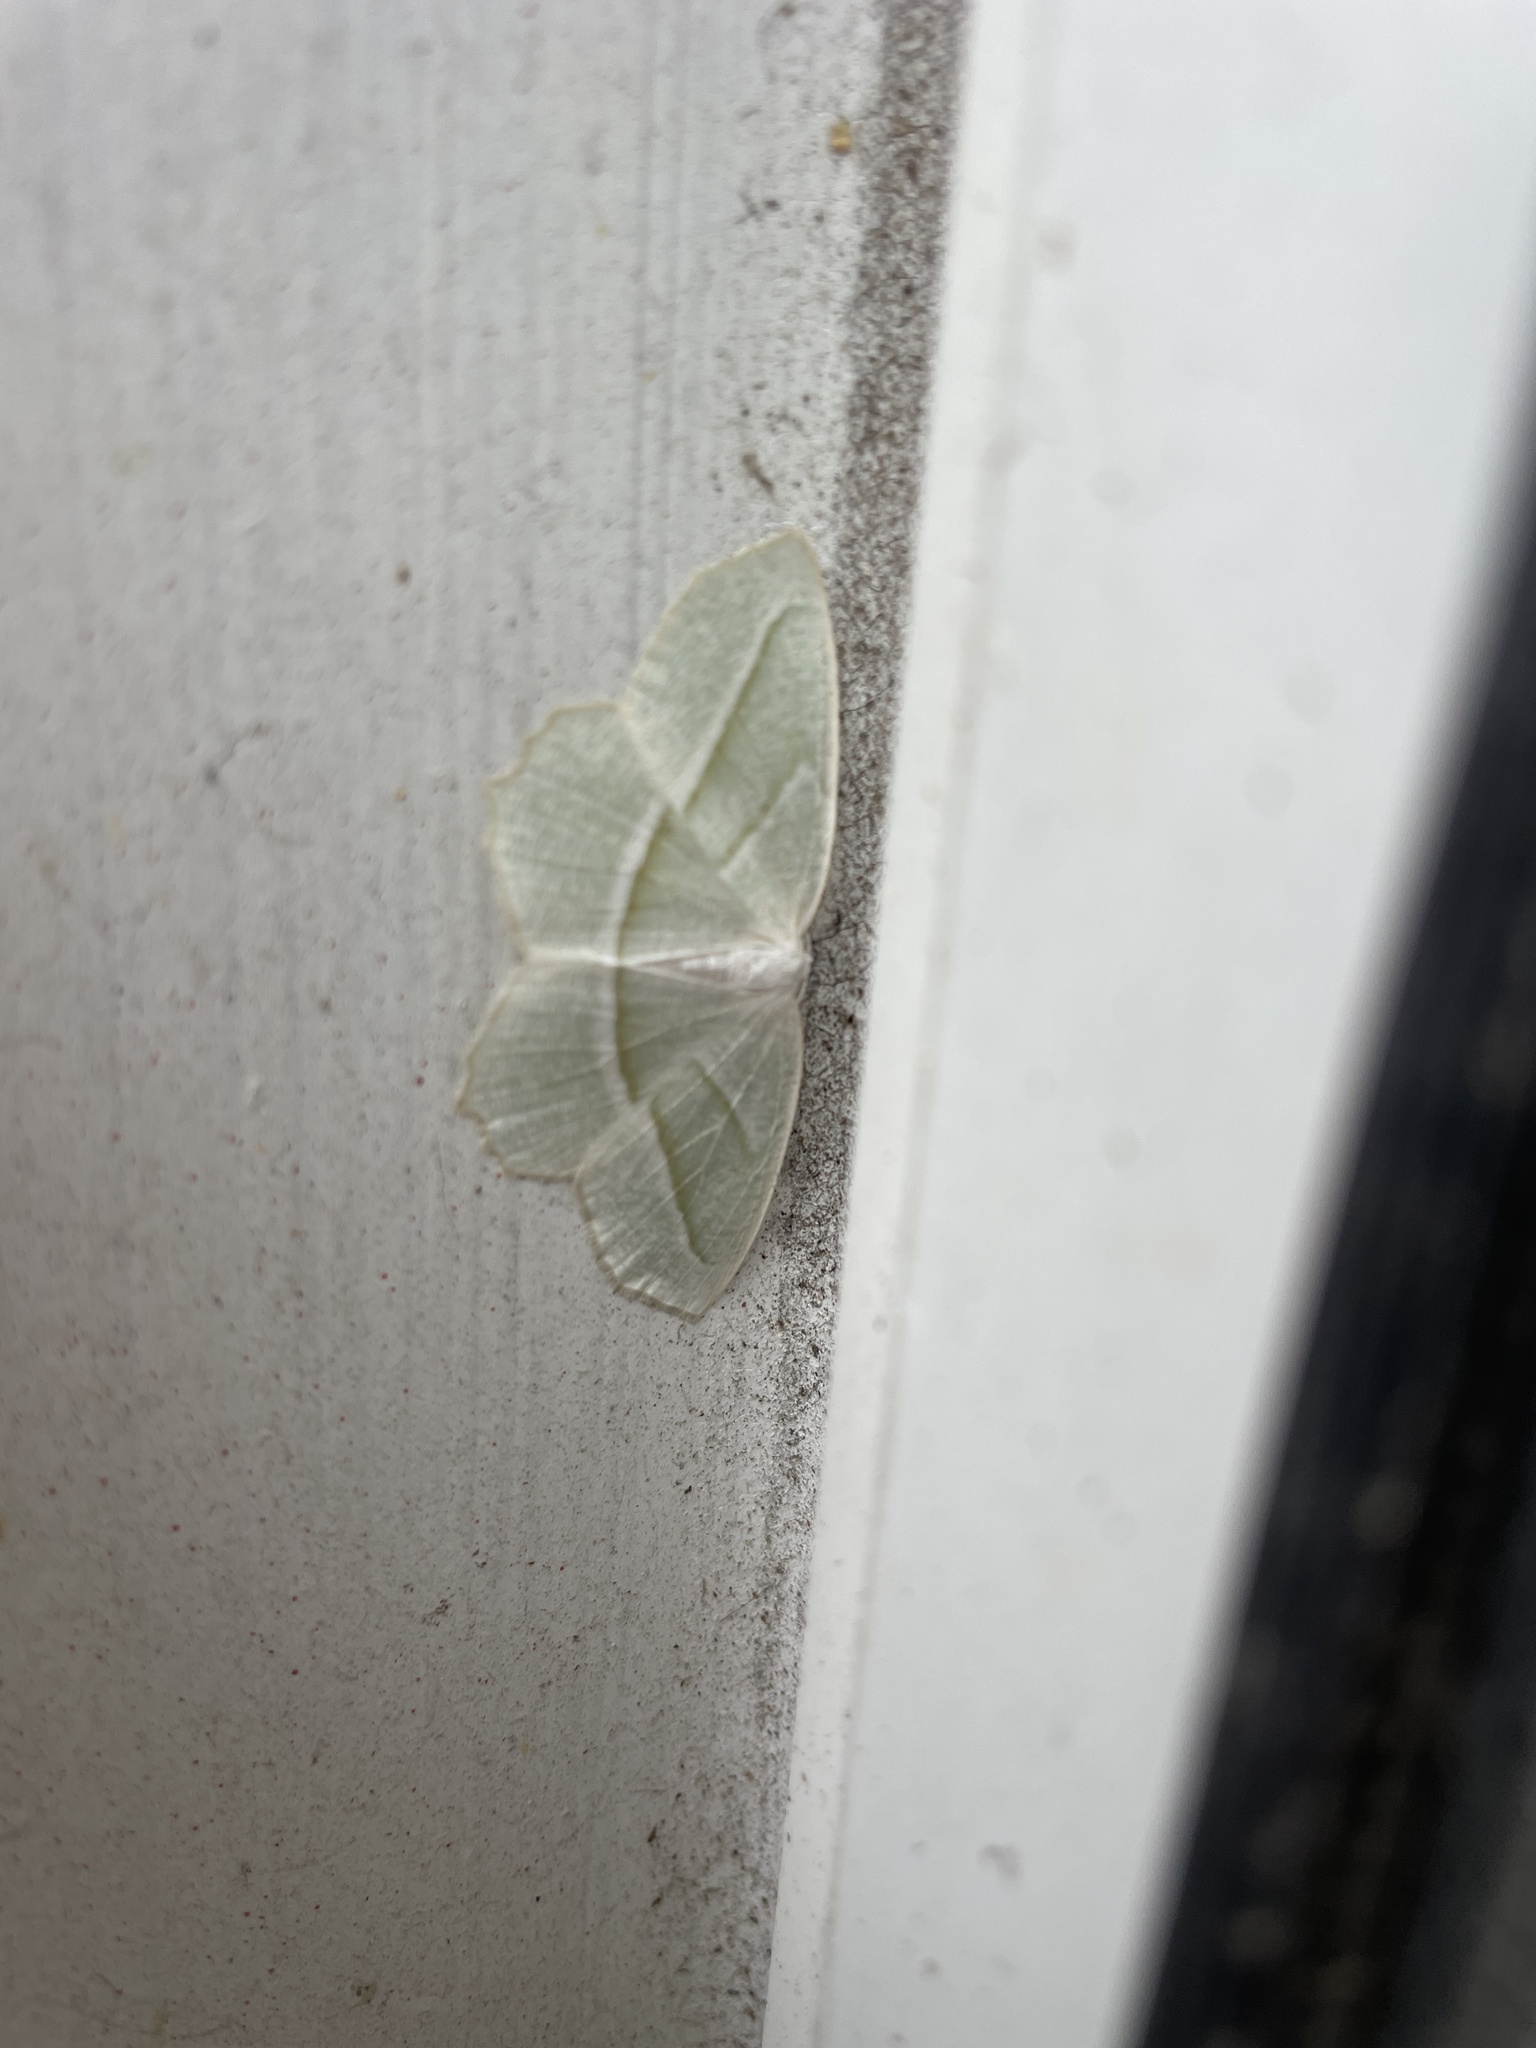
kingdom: Animalia
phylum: Arthropoda
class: Insecta
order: Lepidoptera
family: Geometridae
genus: Campaea
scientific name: Campaea perlata
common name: Fringed looper
